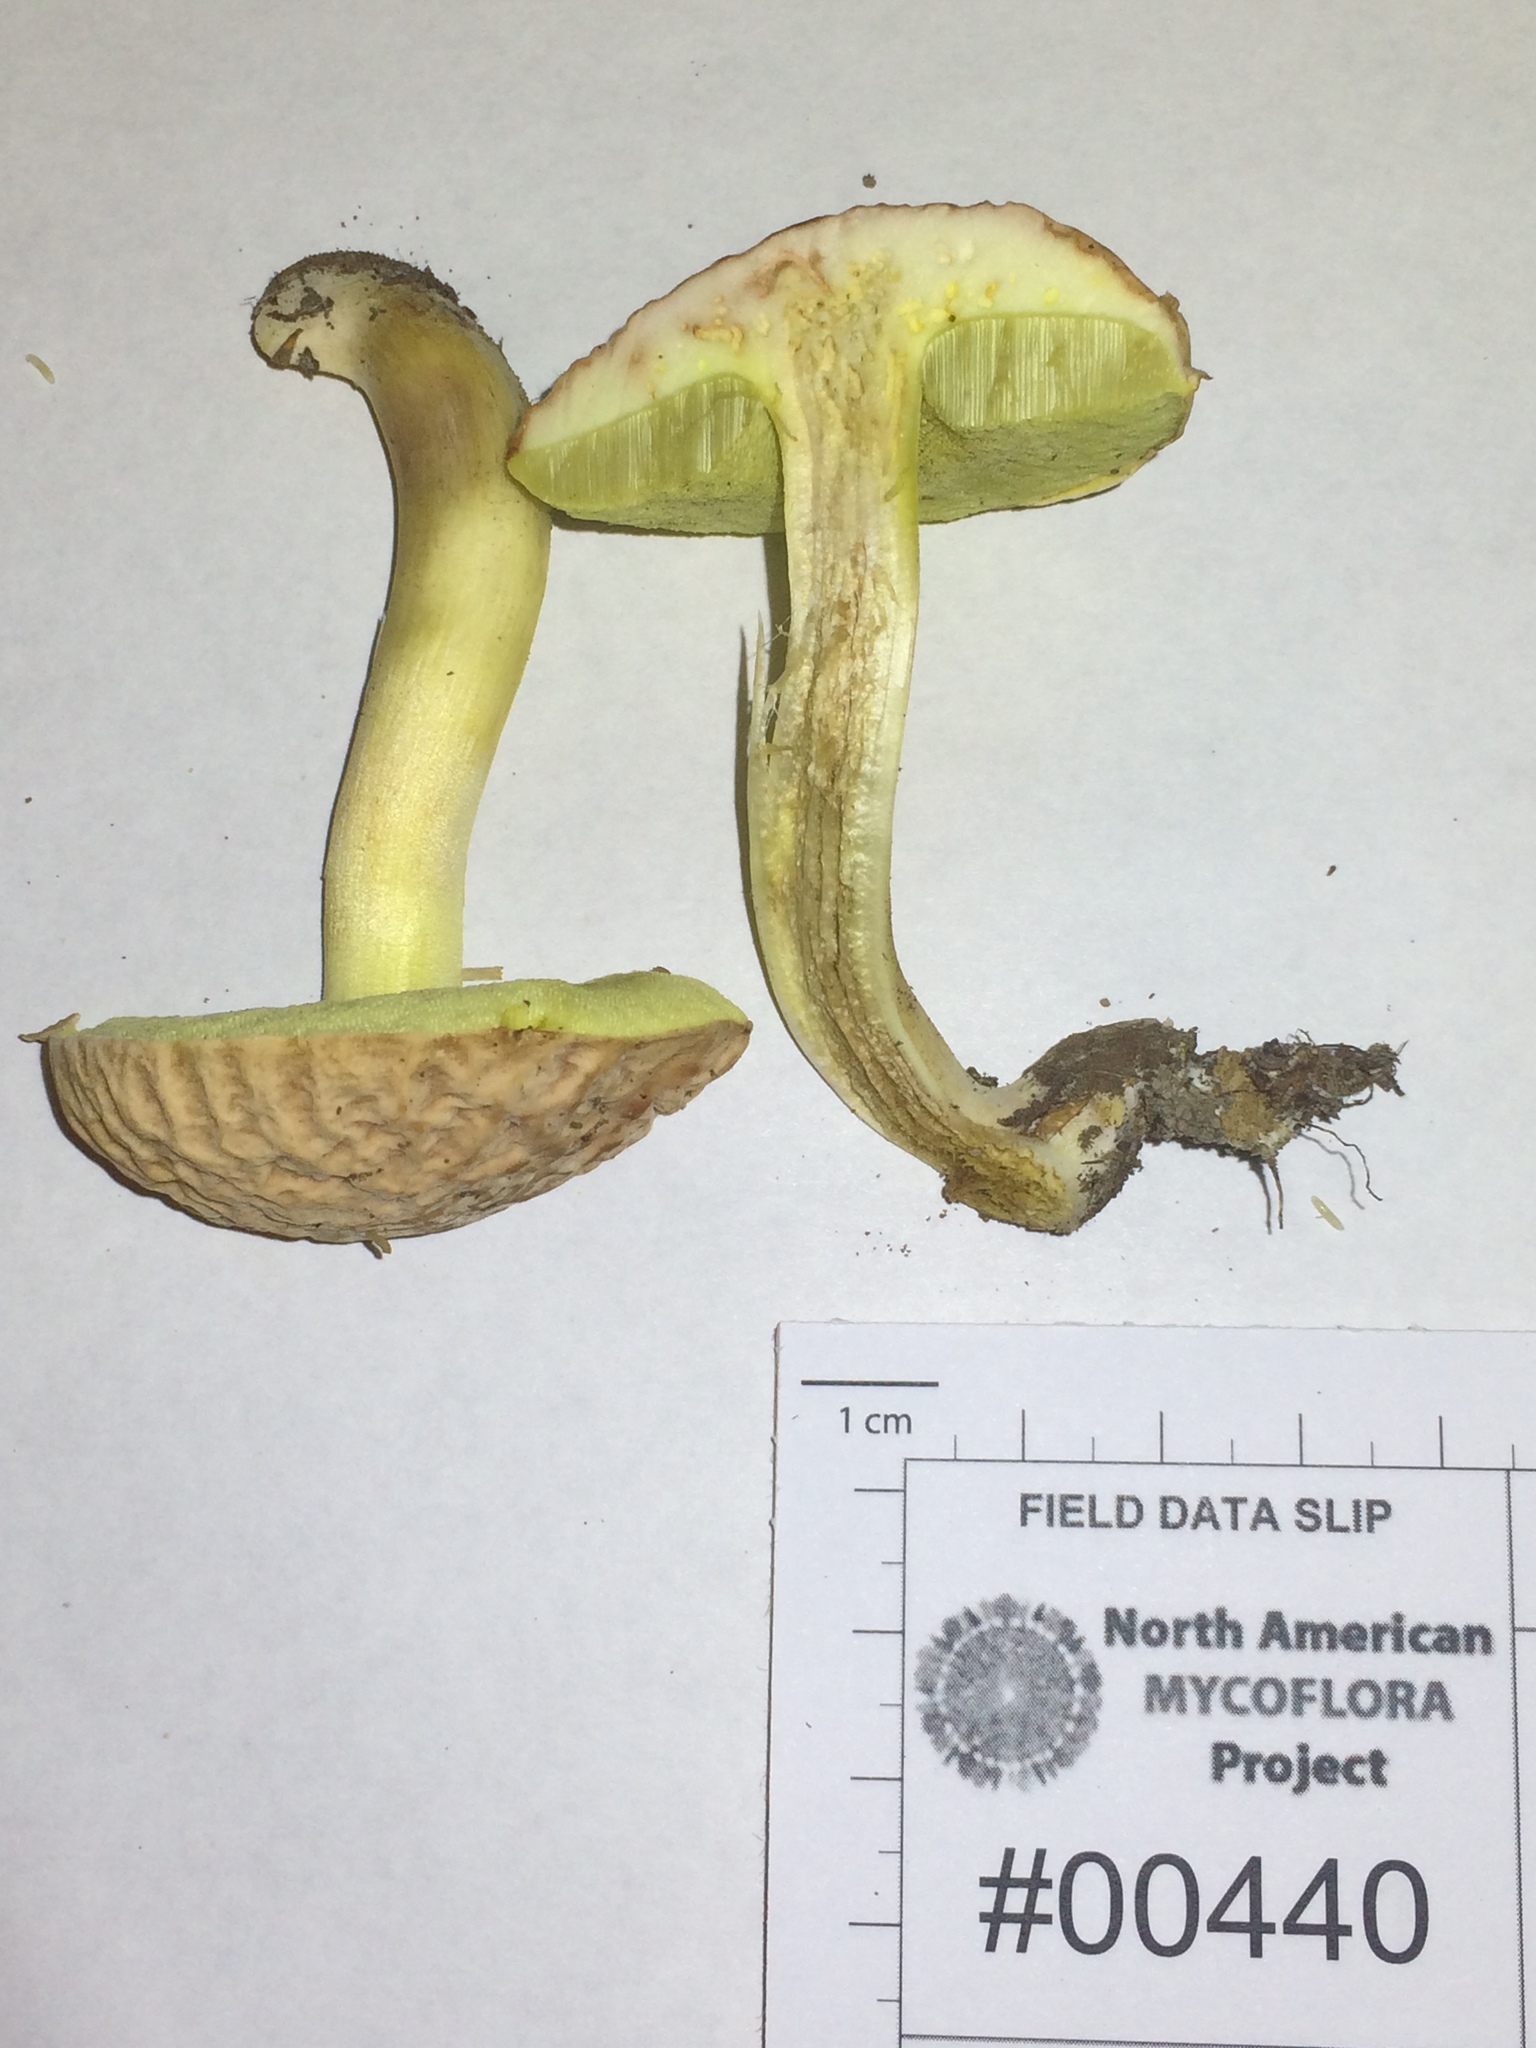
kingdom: Fungi
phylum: Basidiomycota
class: Agaricomycetes
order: Boletales
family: Boletaceae
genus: Hemileccinum
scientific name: Hemileccinum hortonii
